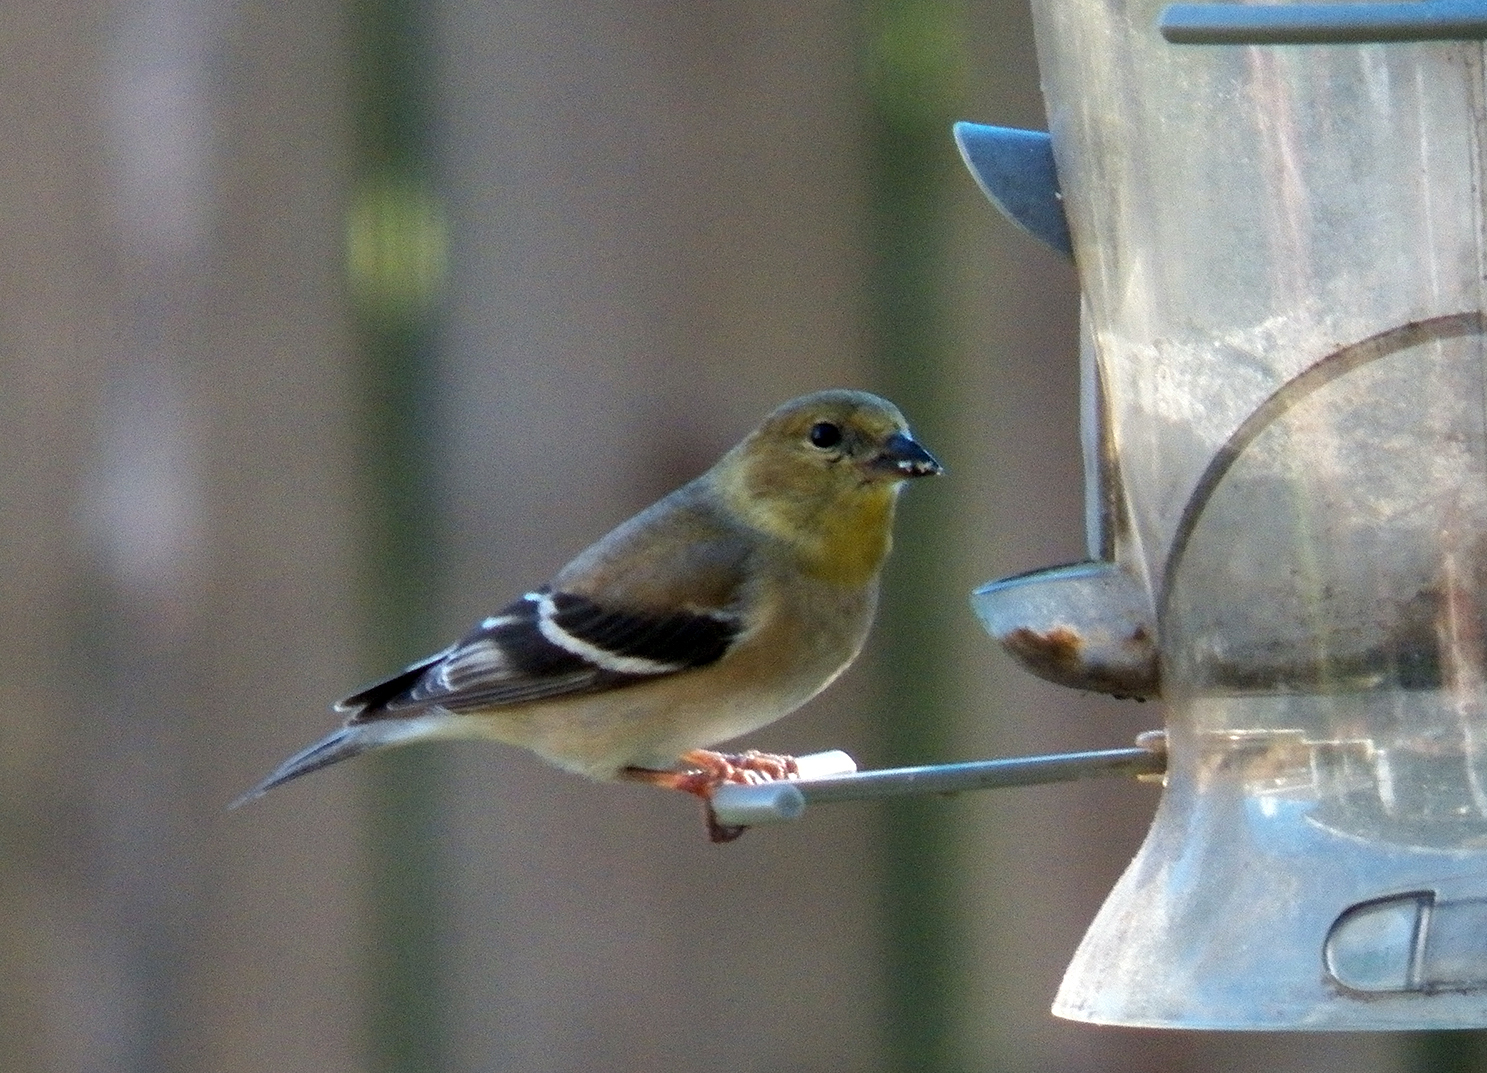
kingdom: Animalia
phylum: Chordata
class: Aves
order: Passeriformes
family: Fringillidae
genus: Spinus
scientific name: Spinus tristis
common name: American goldfinch
